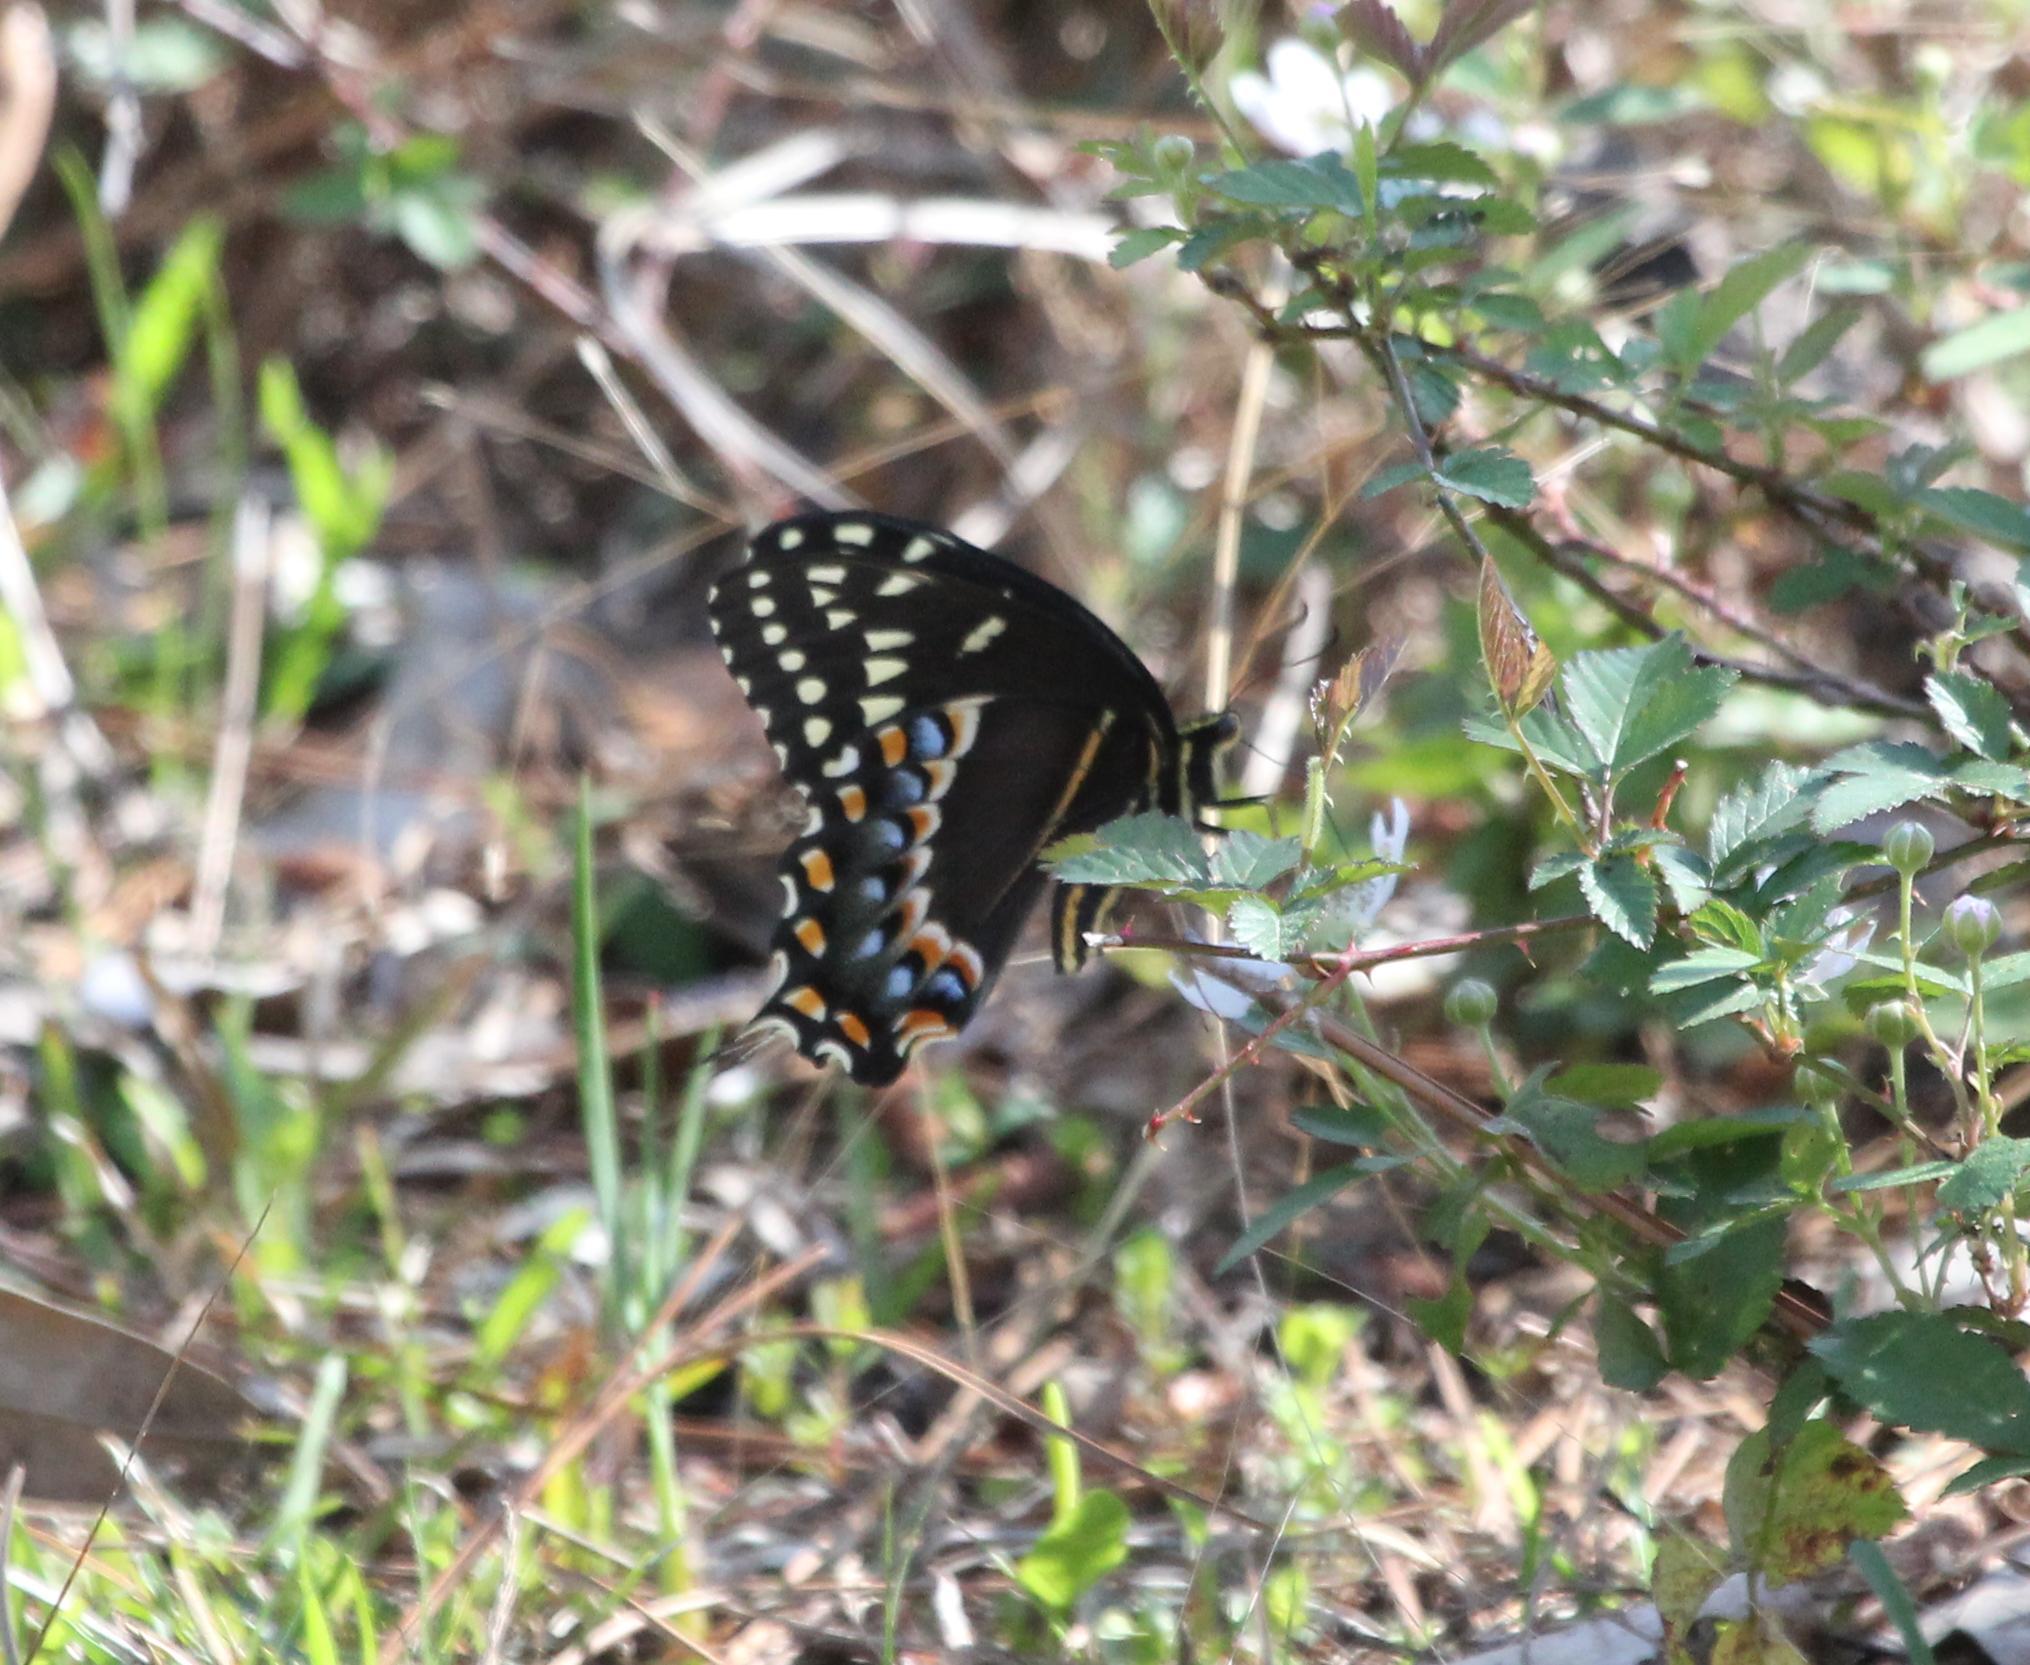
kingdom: Animalia
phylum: Arthropoda
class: Insecta
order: Lepidoptera
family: Papilionidae
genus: Papilio
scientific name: Papilio palamedes
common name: Palamedes swallowtail
